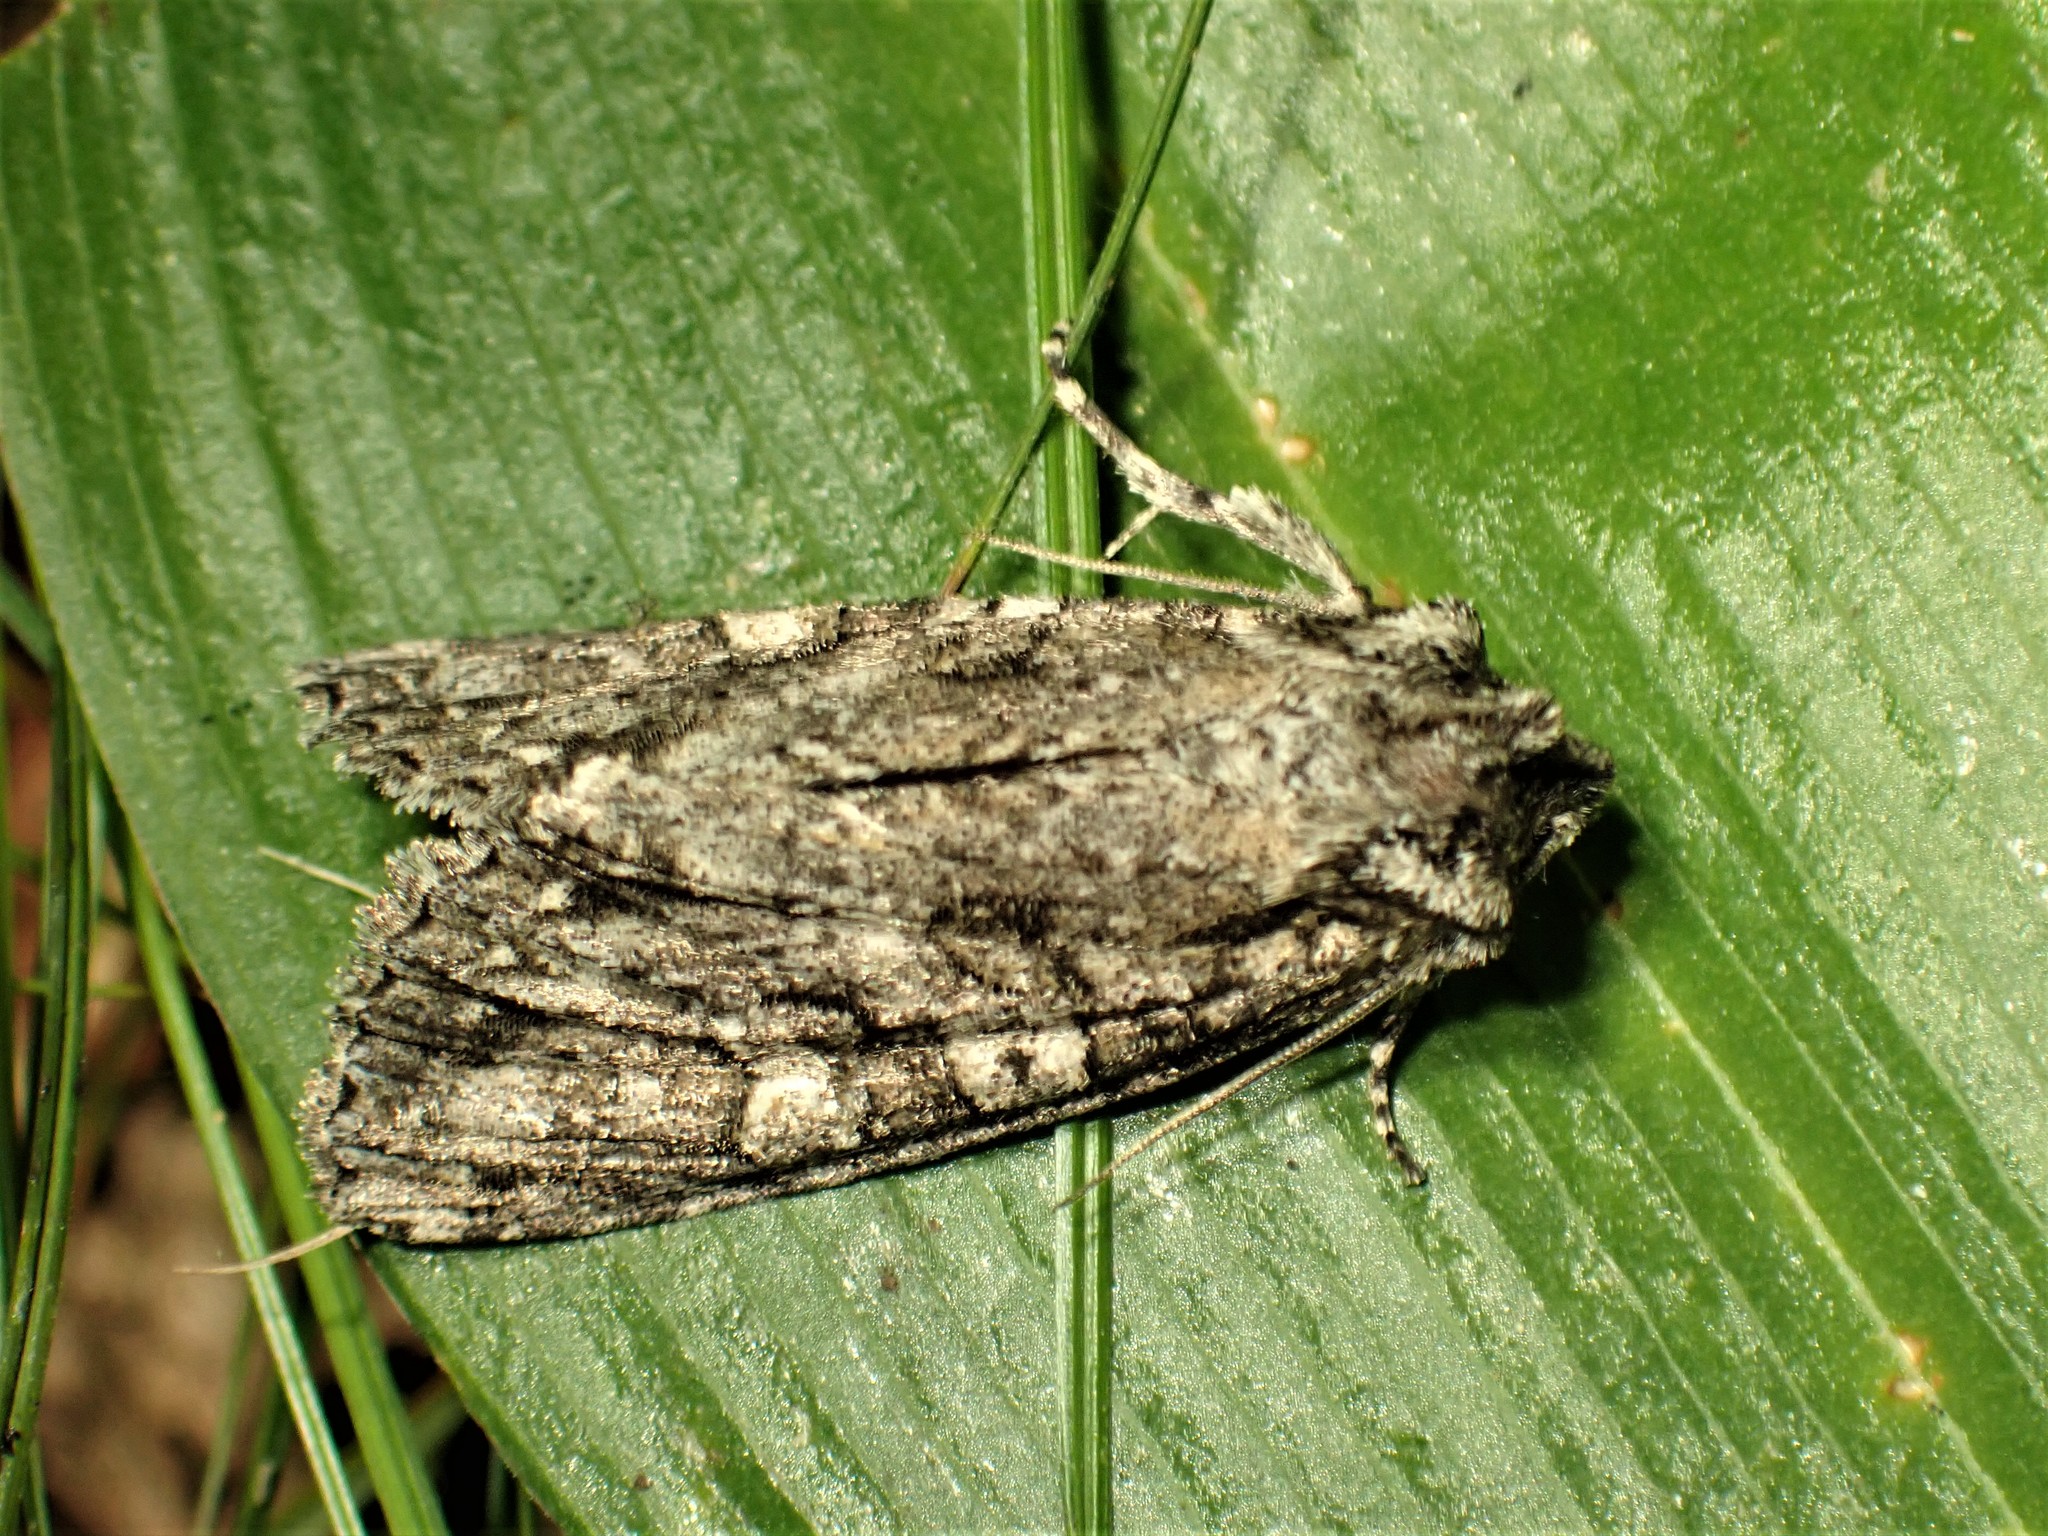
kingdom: Animalia
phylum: Arthropoda
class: Insecta
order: Lepidoptera
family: Noctuidae
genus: Polia
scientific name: Polia imbrifera
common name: Cloudy arches moth
